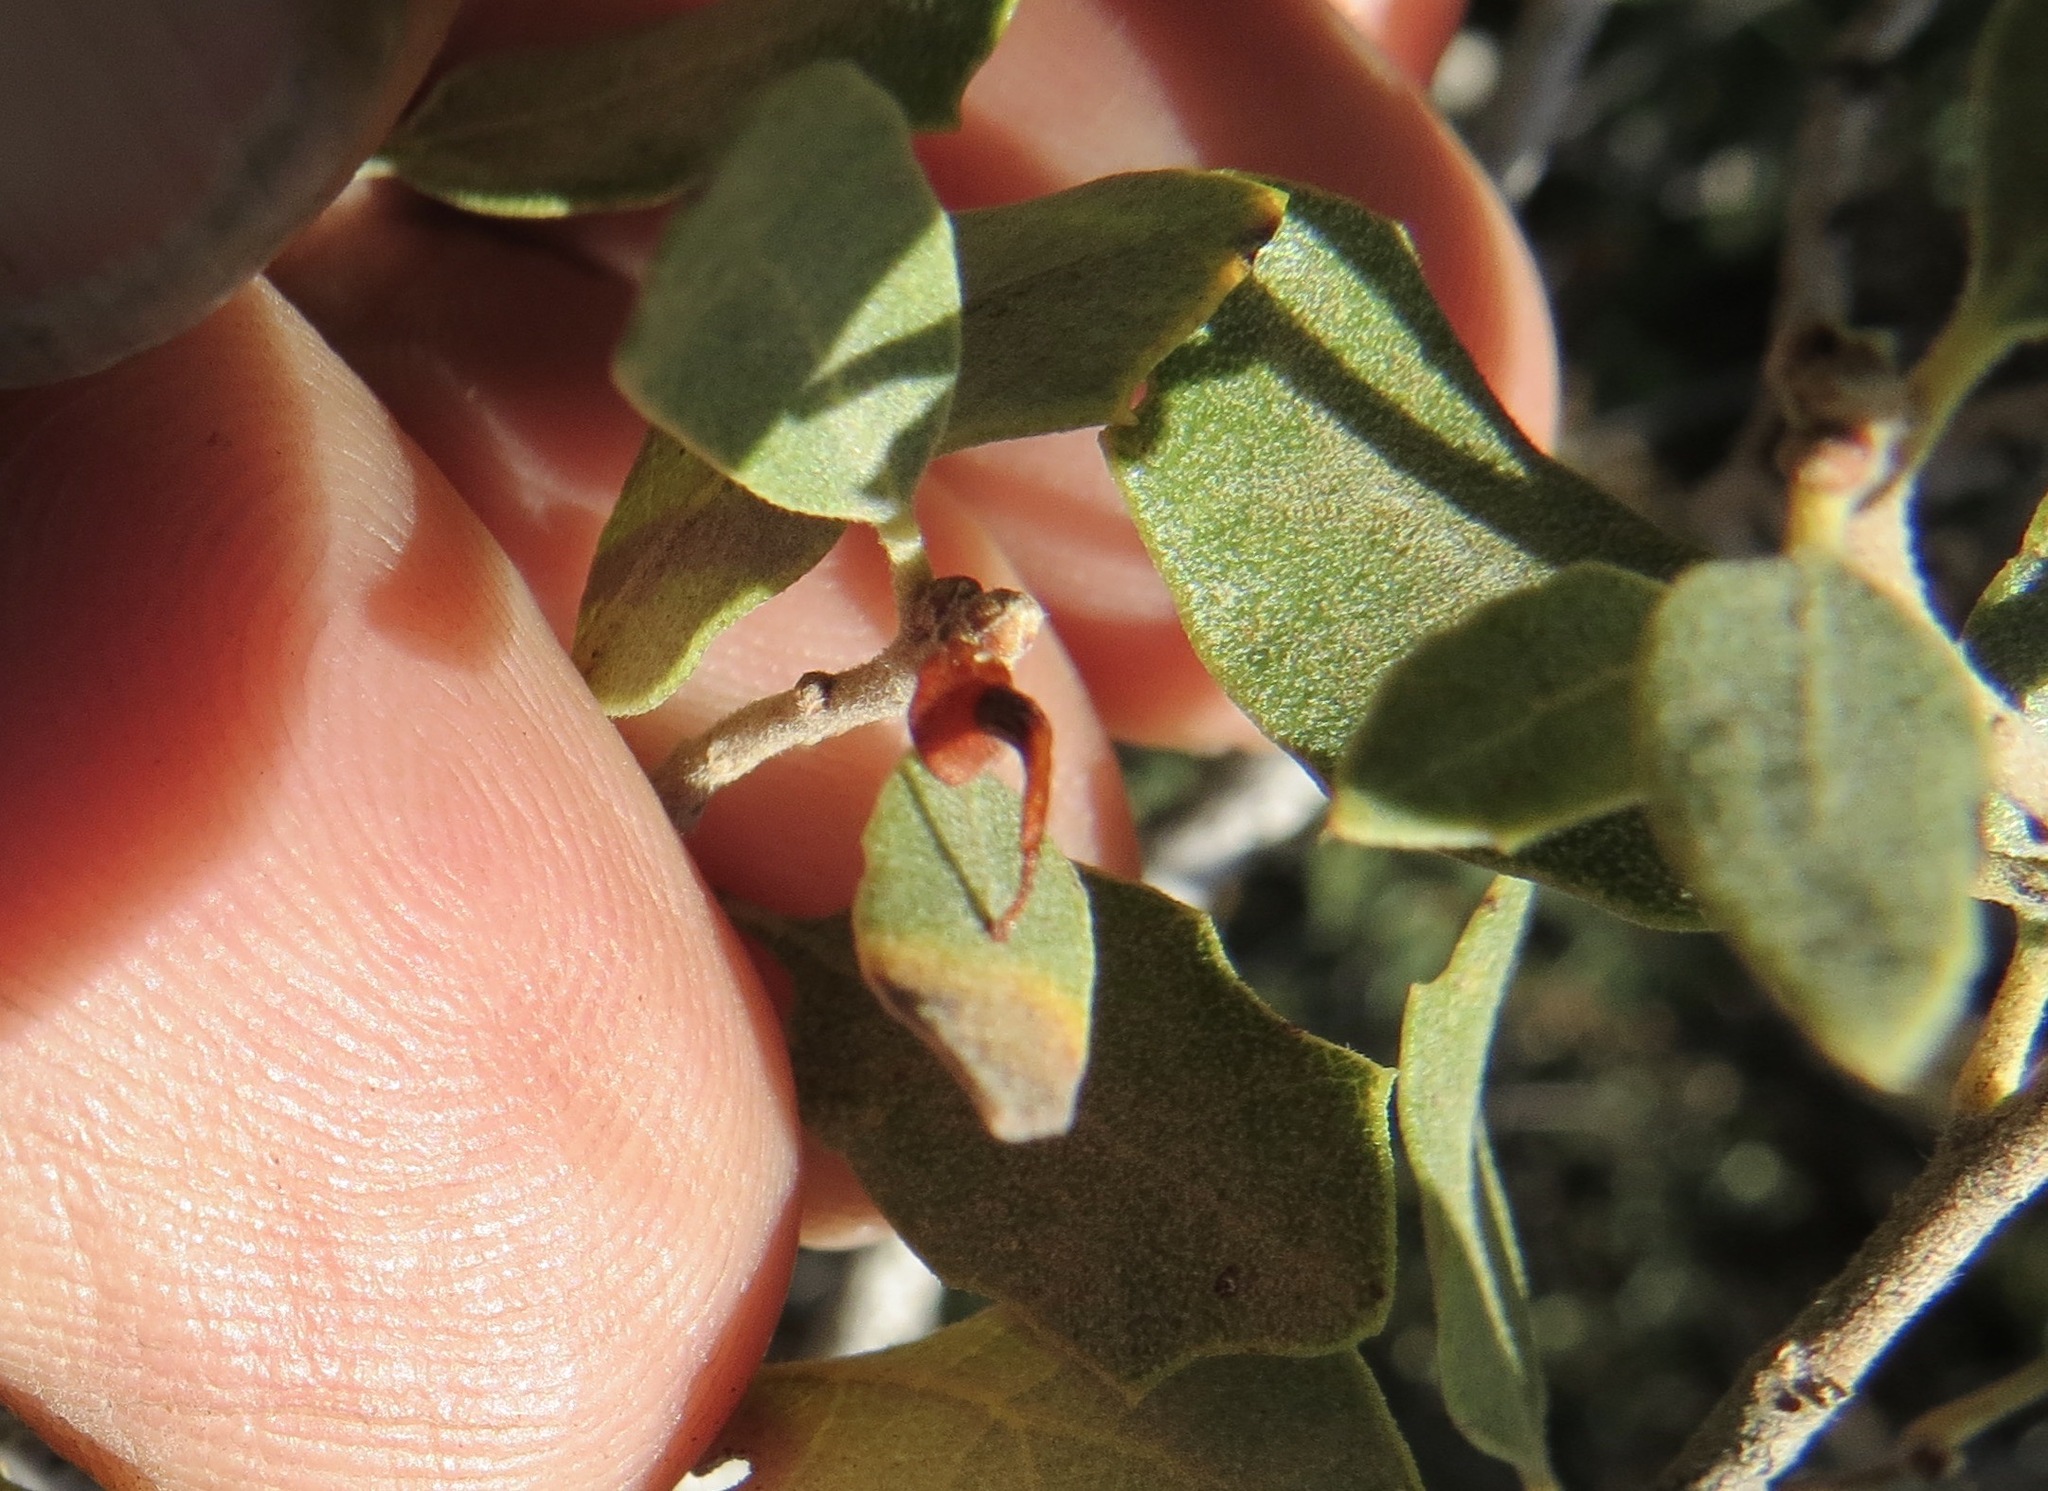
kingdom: Animalia
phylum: Arthropoda
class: Insecta
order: Hymenoptera
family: Cynipidae
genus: Andricus
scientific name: Andricus
